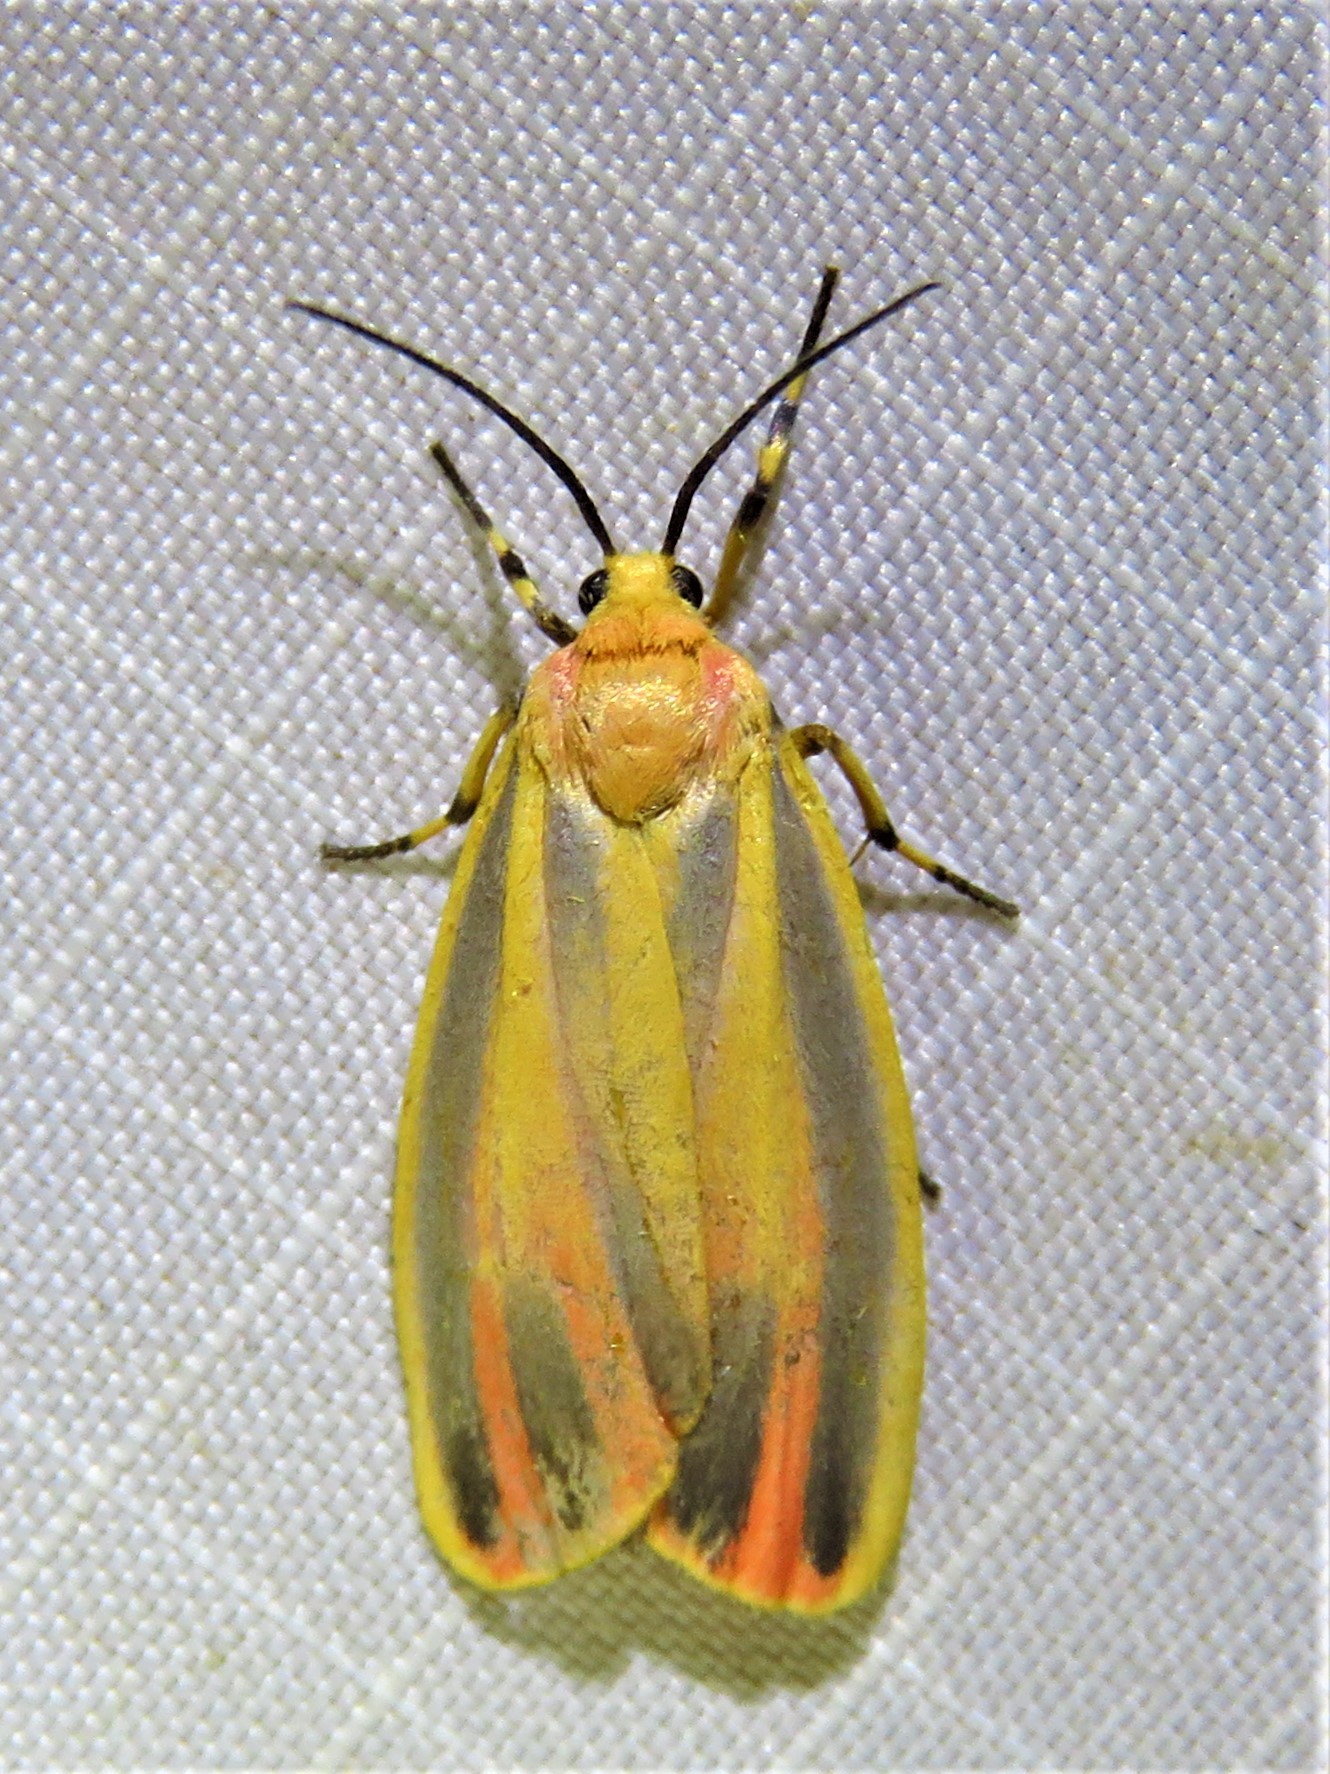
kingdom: Animalia
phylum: Arthropoda
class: Insecta
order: Lepidoptera
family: Erebidae
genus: Hypoprepia
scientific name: Hypoprepia fucosa
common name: Painted lichen moth
